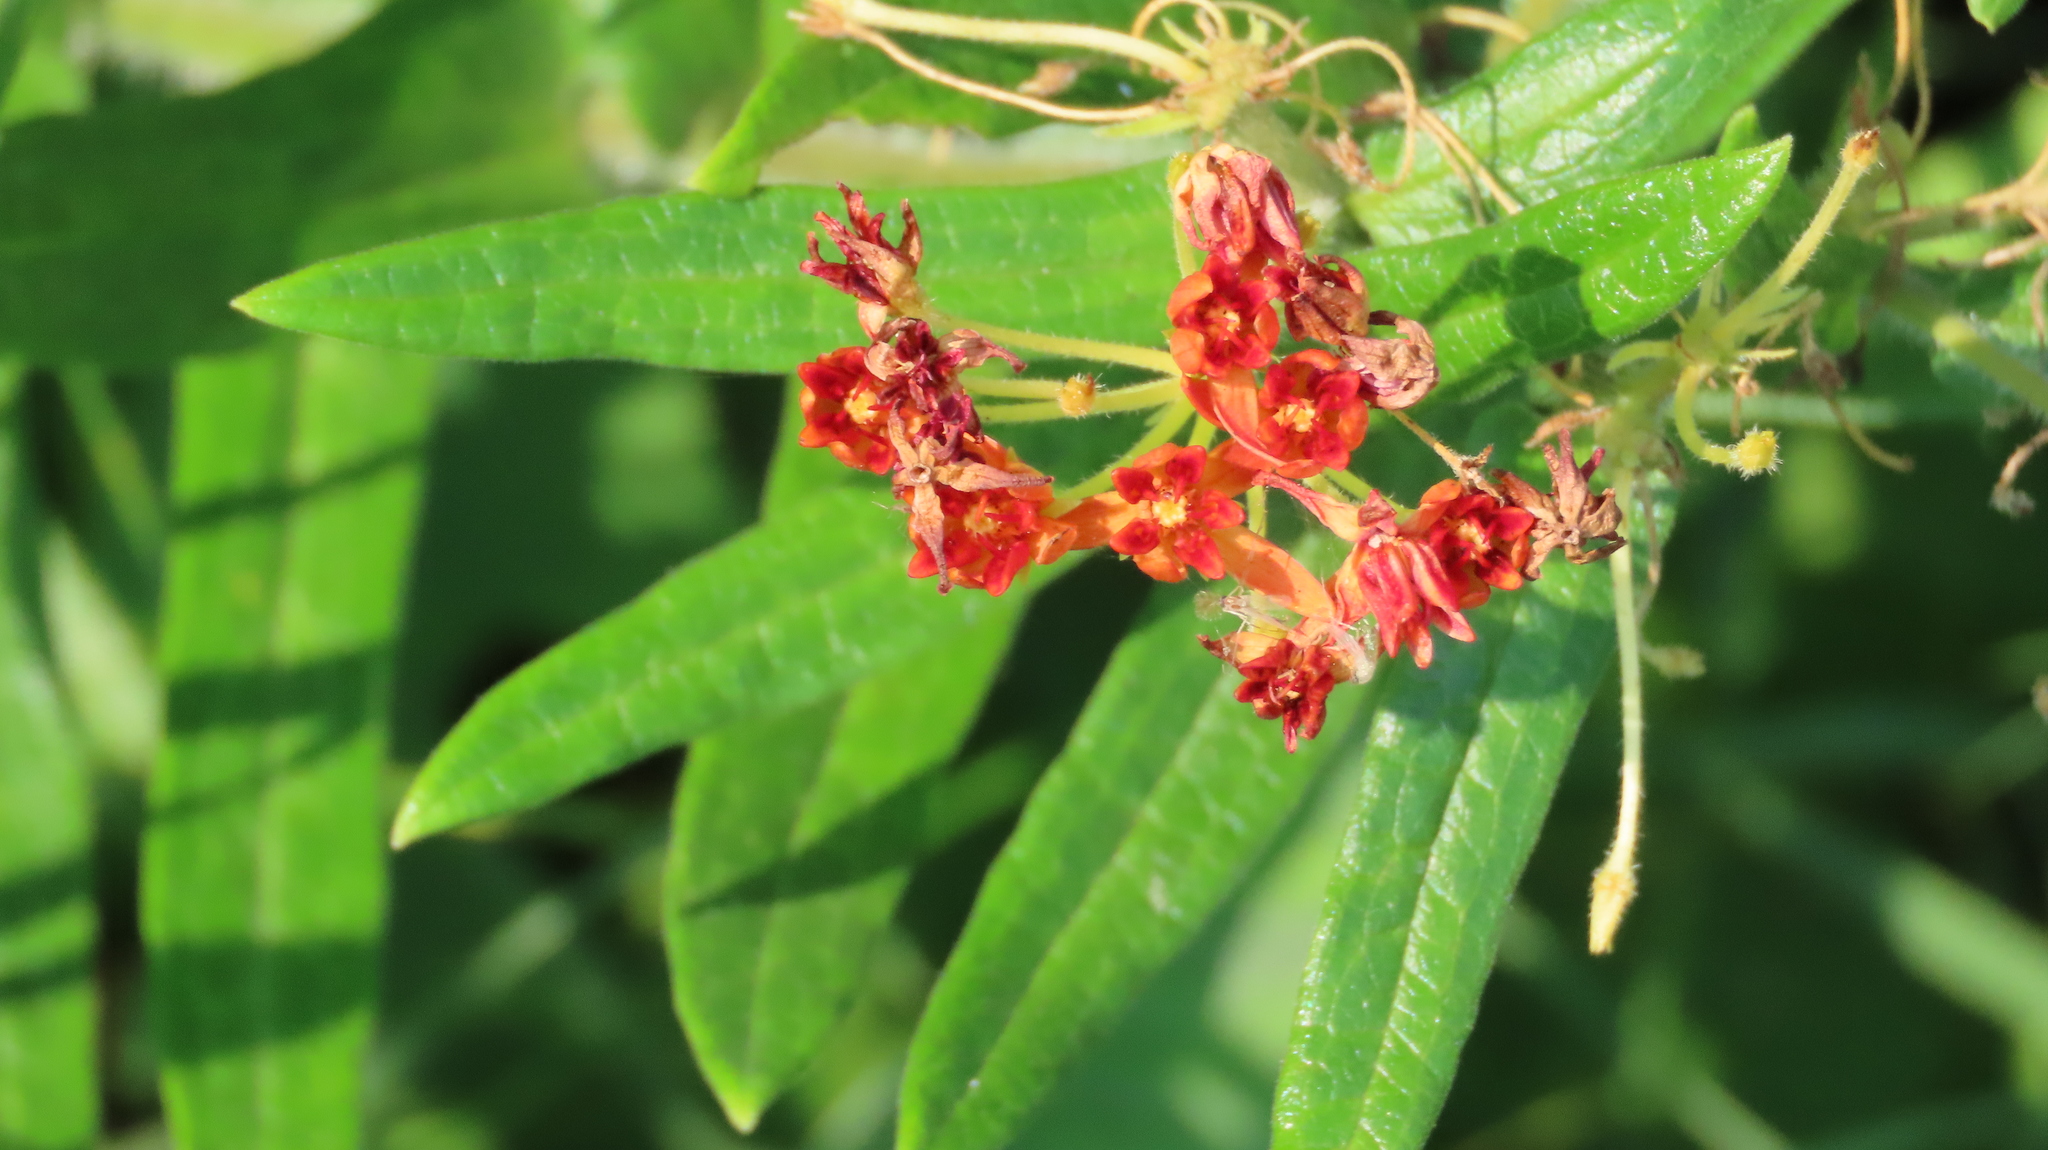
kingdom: Plantae
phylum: Tracheophyta
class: Magnoliopsida
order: Gentianales
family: Apocynaceae
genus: Asclepias
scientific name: Asclepias tuberosa
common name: Butterfly milkweed
